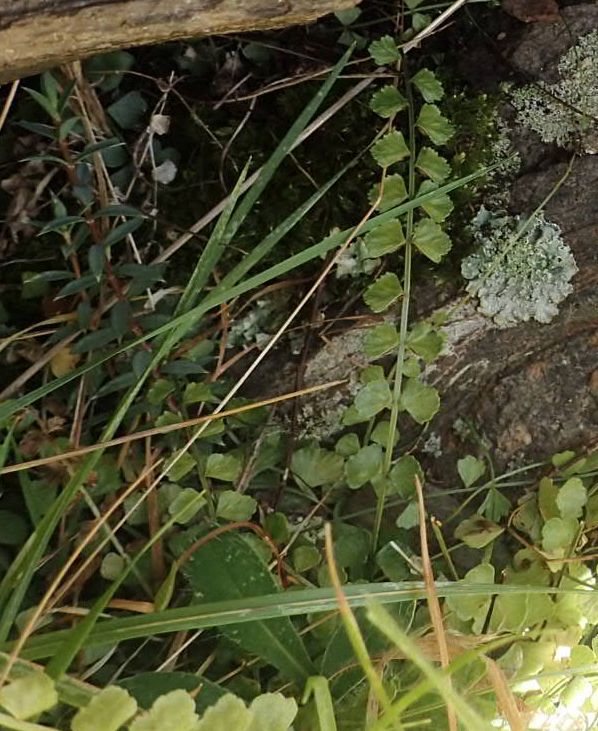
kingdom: Plantae
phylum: Tracheophyta
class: Polypodiopsida
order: Polypodiales
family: Aspleniaceae
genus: Asplenium
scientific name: Asplenium flabellifolium
